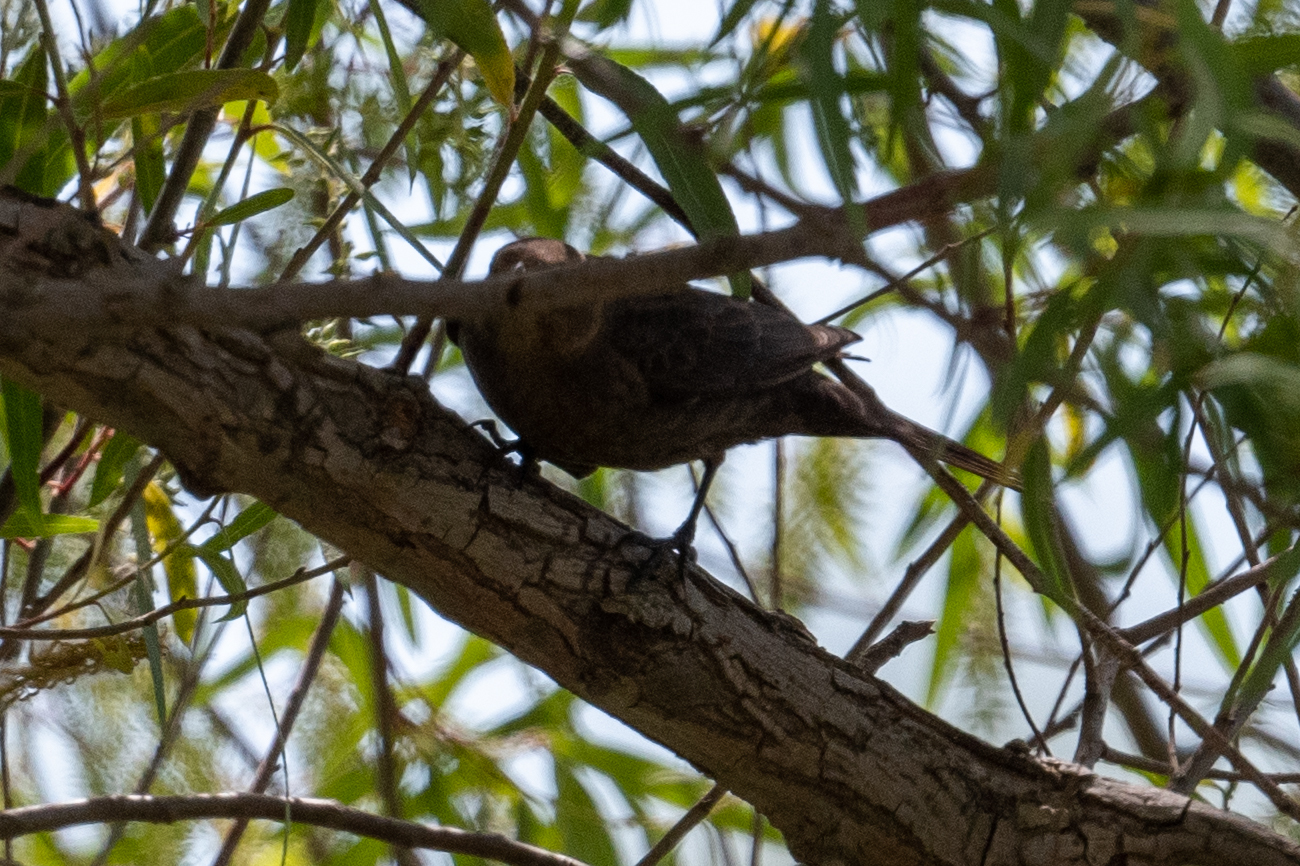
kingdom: Animalia
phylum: Chordata
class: Aves
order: Passeriformes
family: Icteridae
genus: Molothrus
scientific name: Molothrus ater
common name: Brown-headed cowbird
